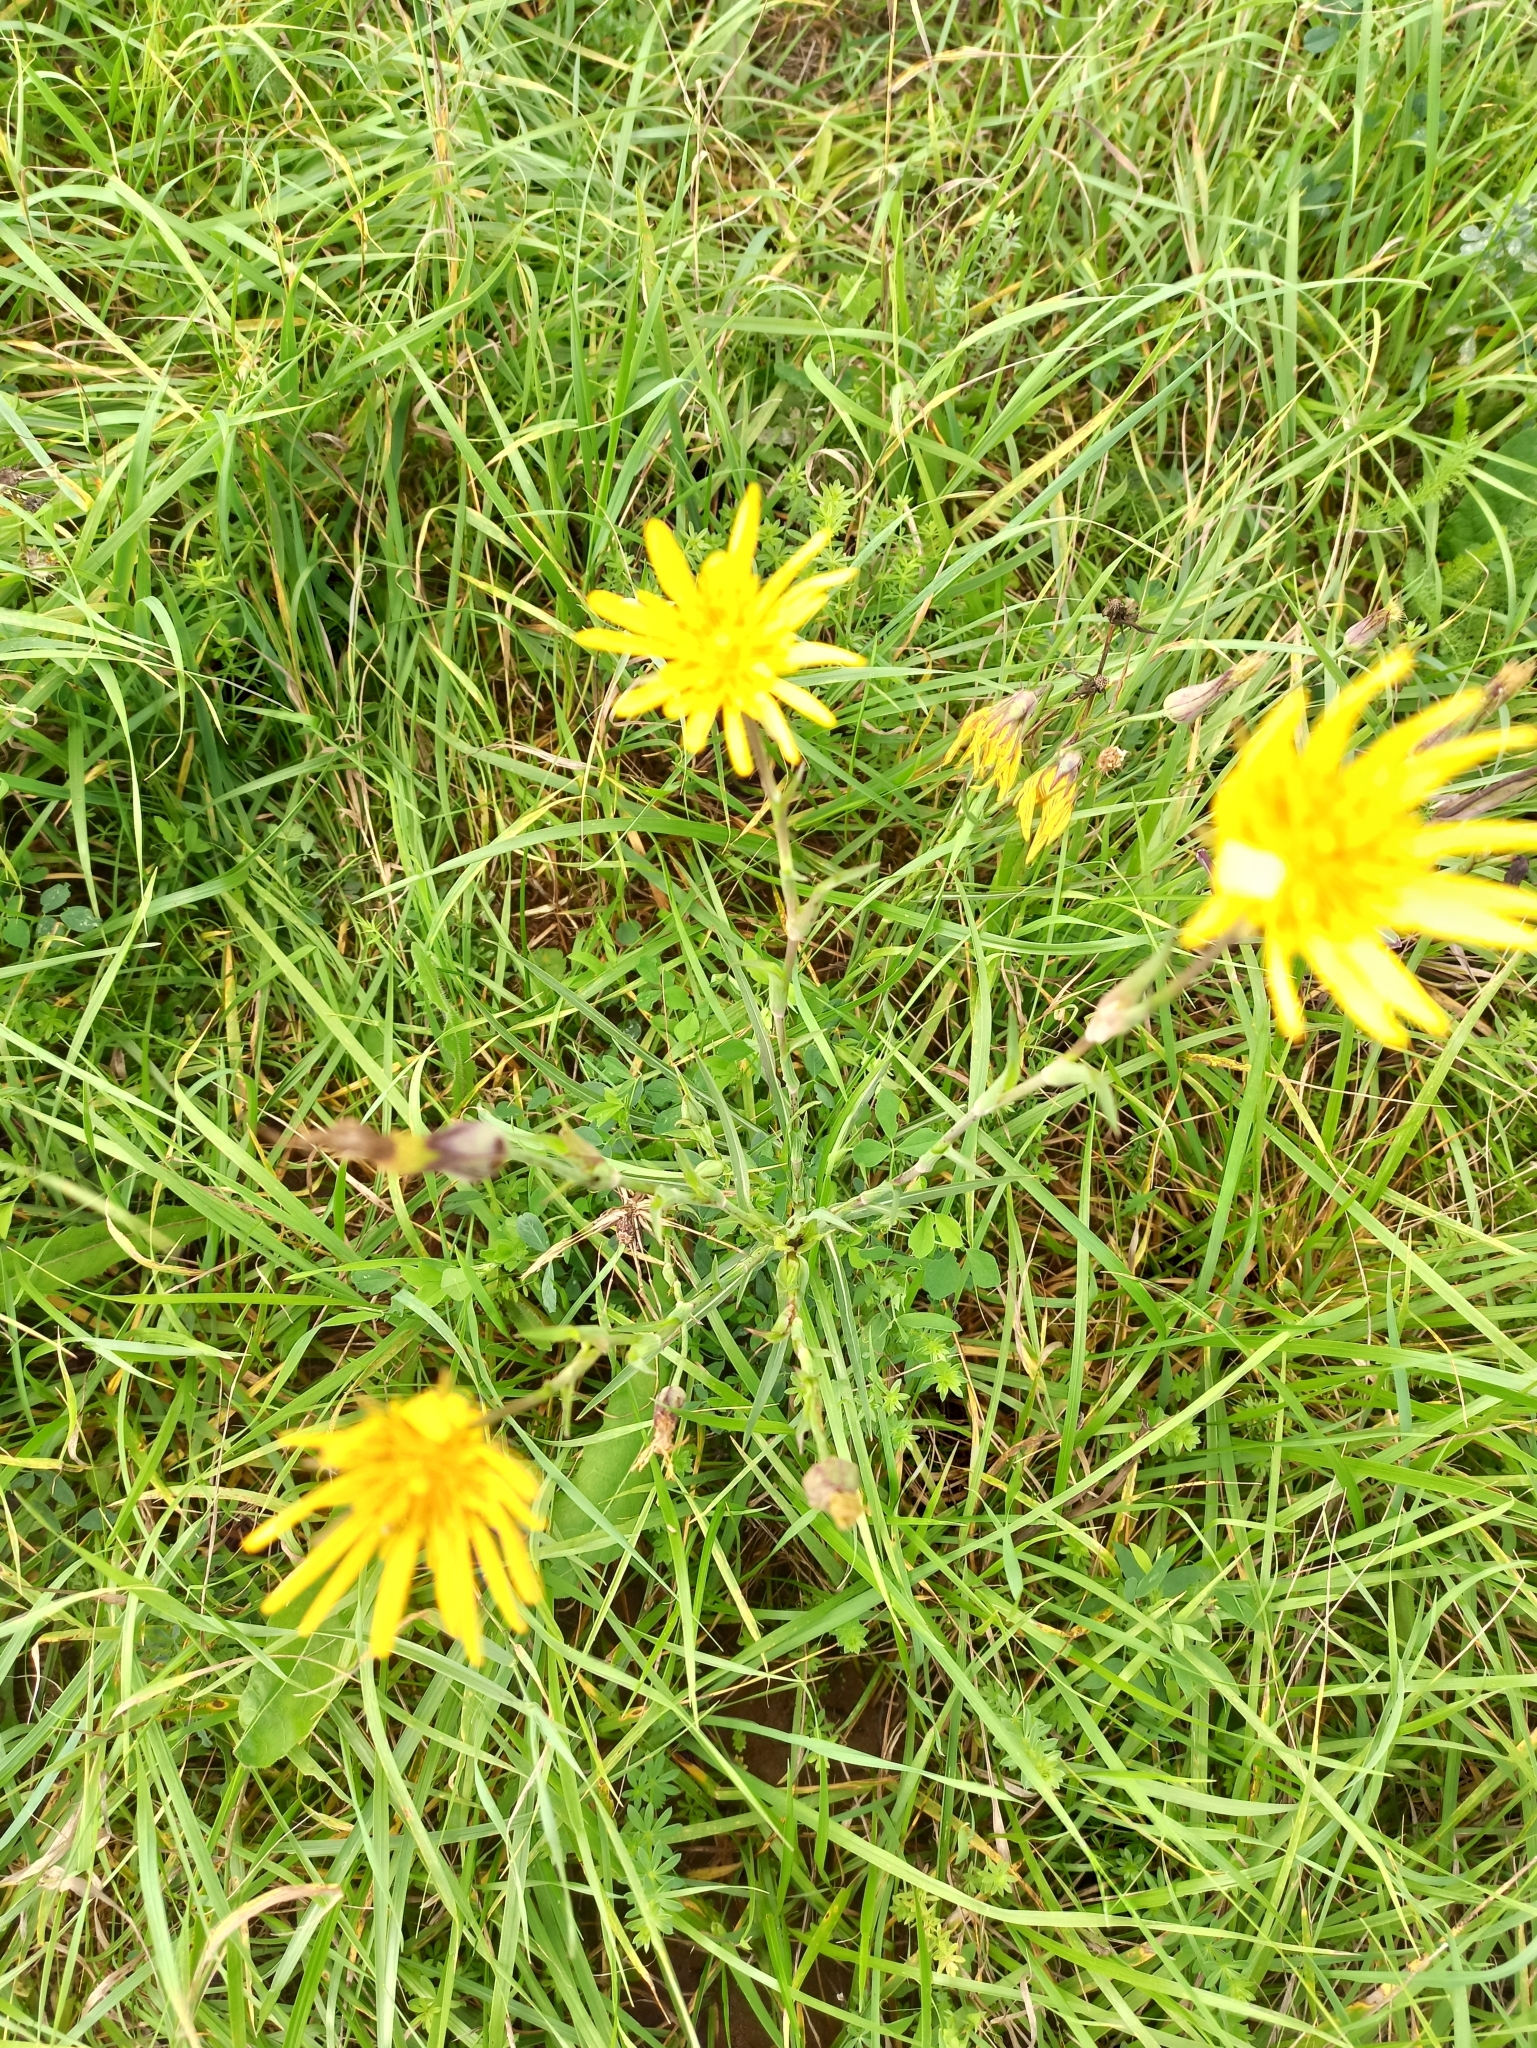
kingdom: Plantae
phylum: Tracheophyta
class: Magnoliopsida
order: Asterales
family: Asteraceae
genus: Tragopogon
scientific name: Tragopogon orientalis
